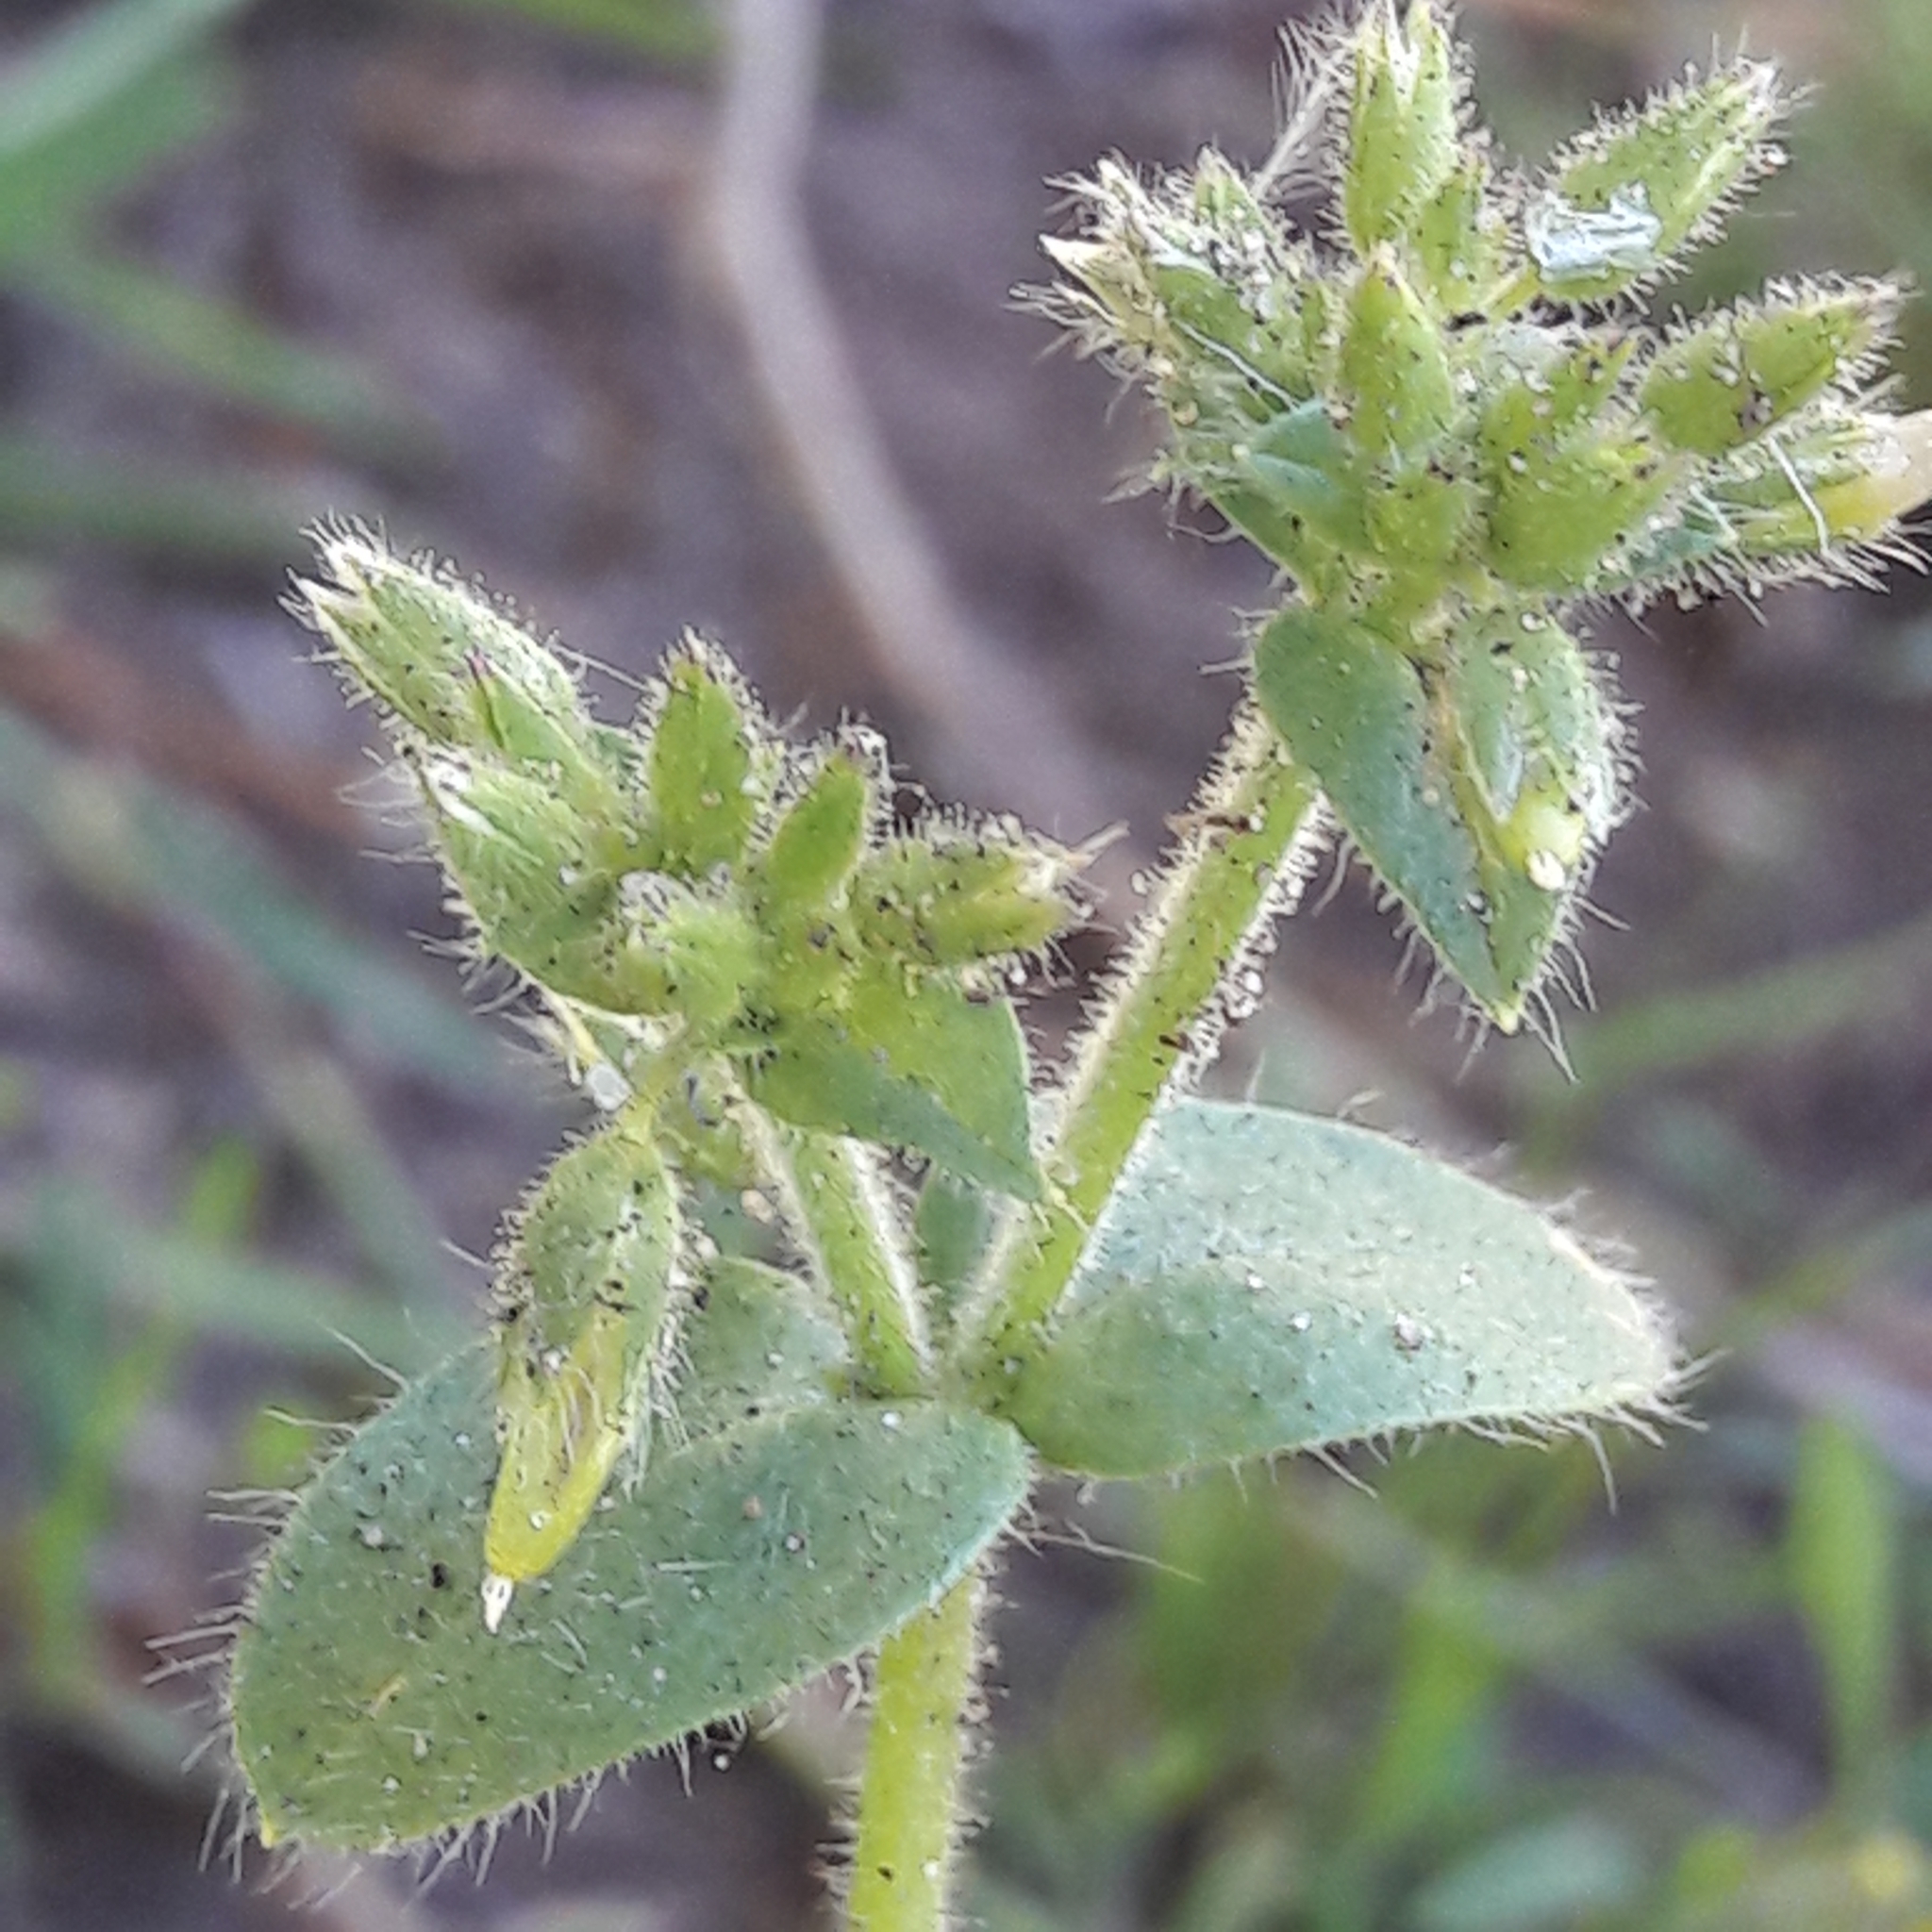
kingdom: Plantae
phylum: Tracheophyta
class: Magnoliopsida
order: Caryophyllales
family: Caryophyllaceae
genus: Cerastium
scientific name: Cerastium glomeratum
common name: Sticky chickweed
